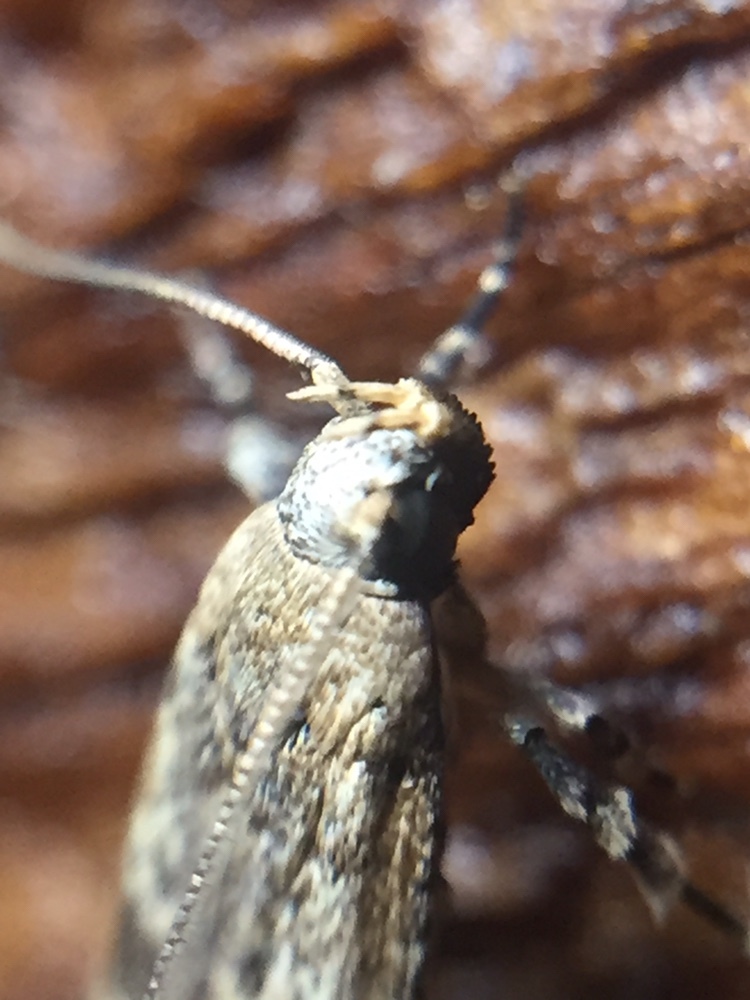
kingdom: Animalia
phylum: Arthropoda
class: Insecta
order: Lepidoptera
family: Gelechiidae
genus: Anisoplaca
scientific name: Anisoplaca cosmia
